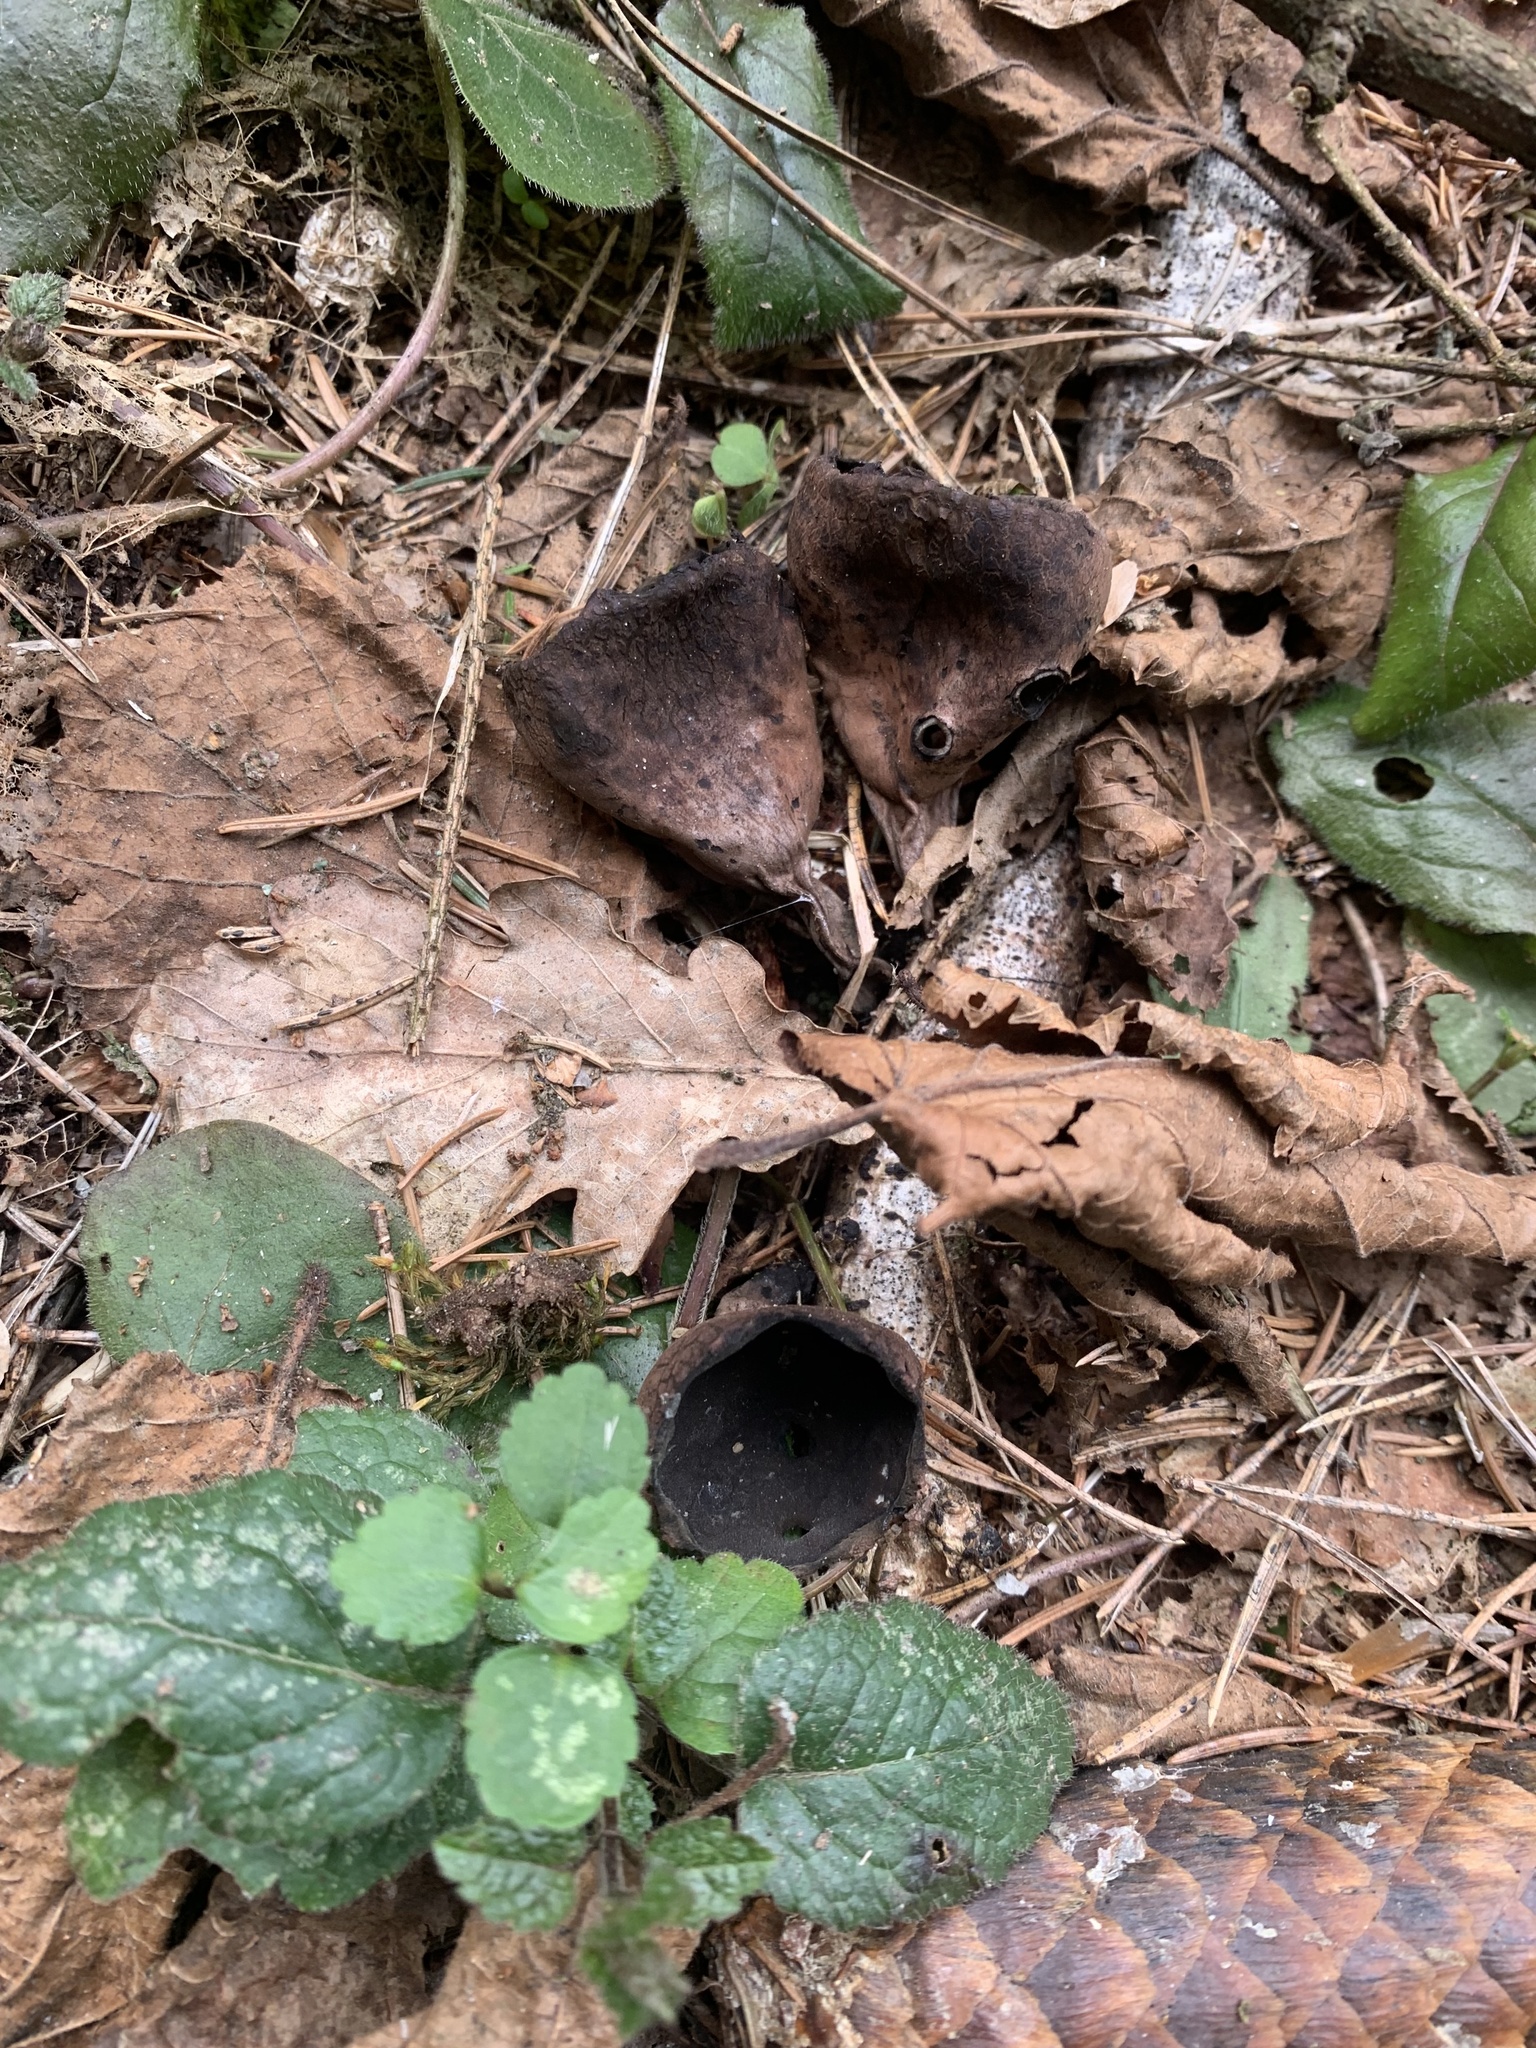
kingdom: Fungi
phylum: Ascomycota
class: Pezizomycetes
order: Pezizales
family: Sarcosomataceae
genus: Urnula
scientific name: Urnula craterium
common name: Devil's urn
